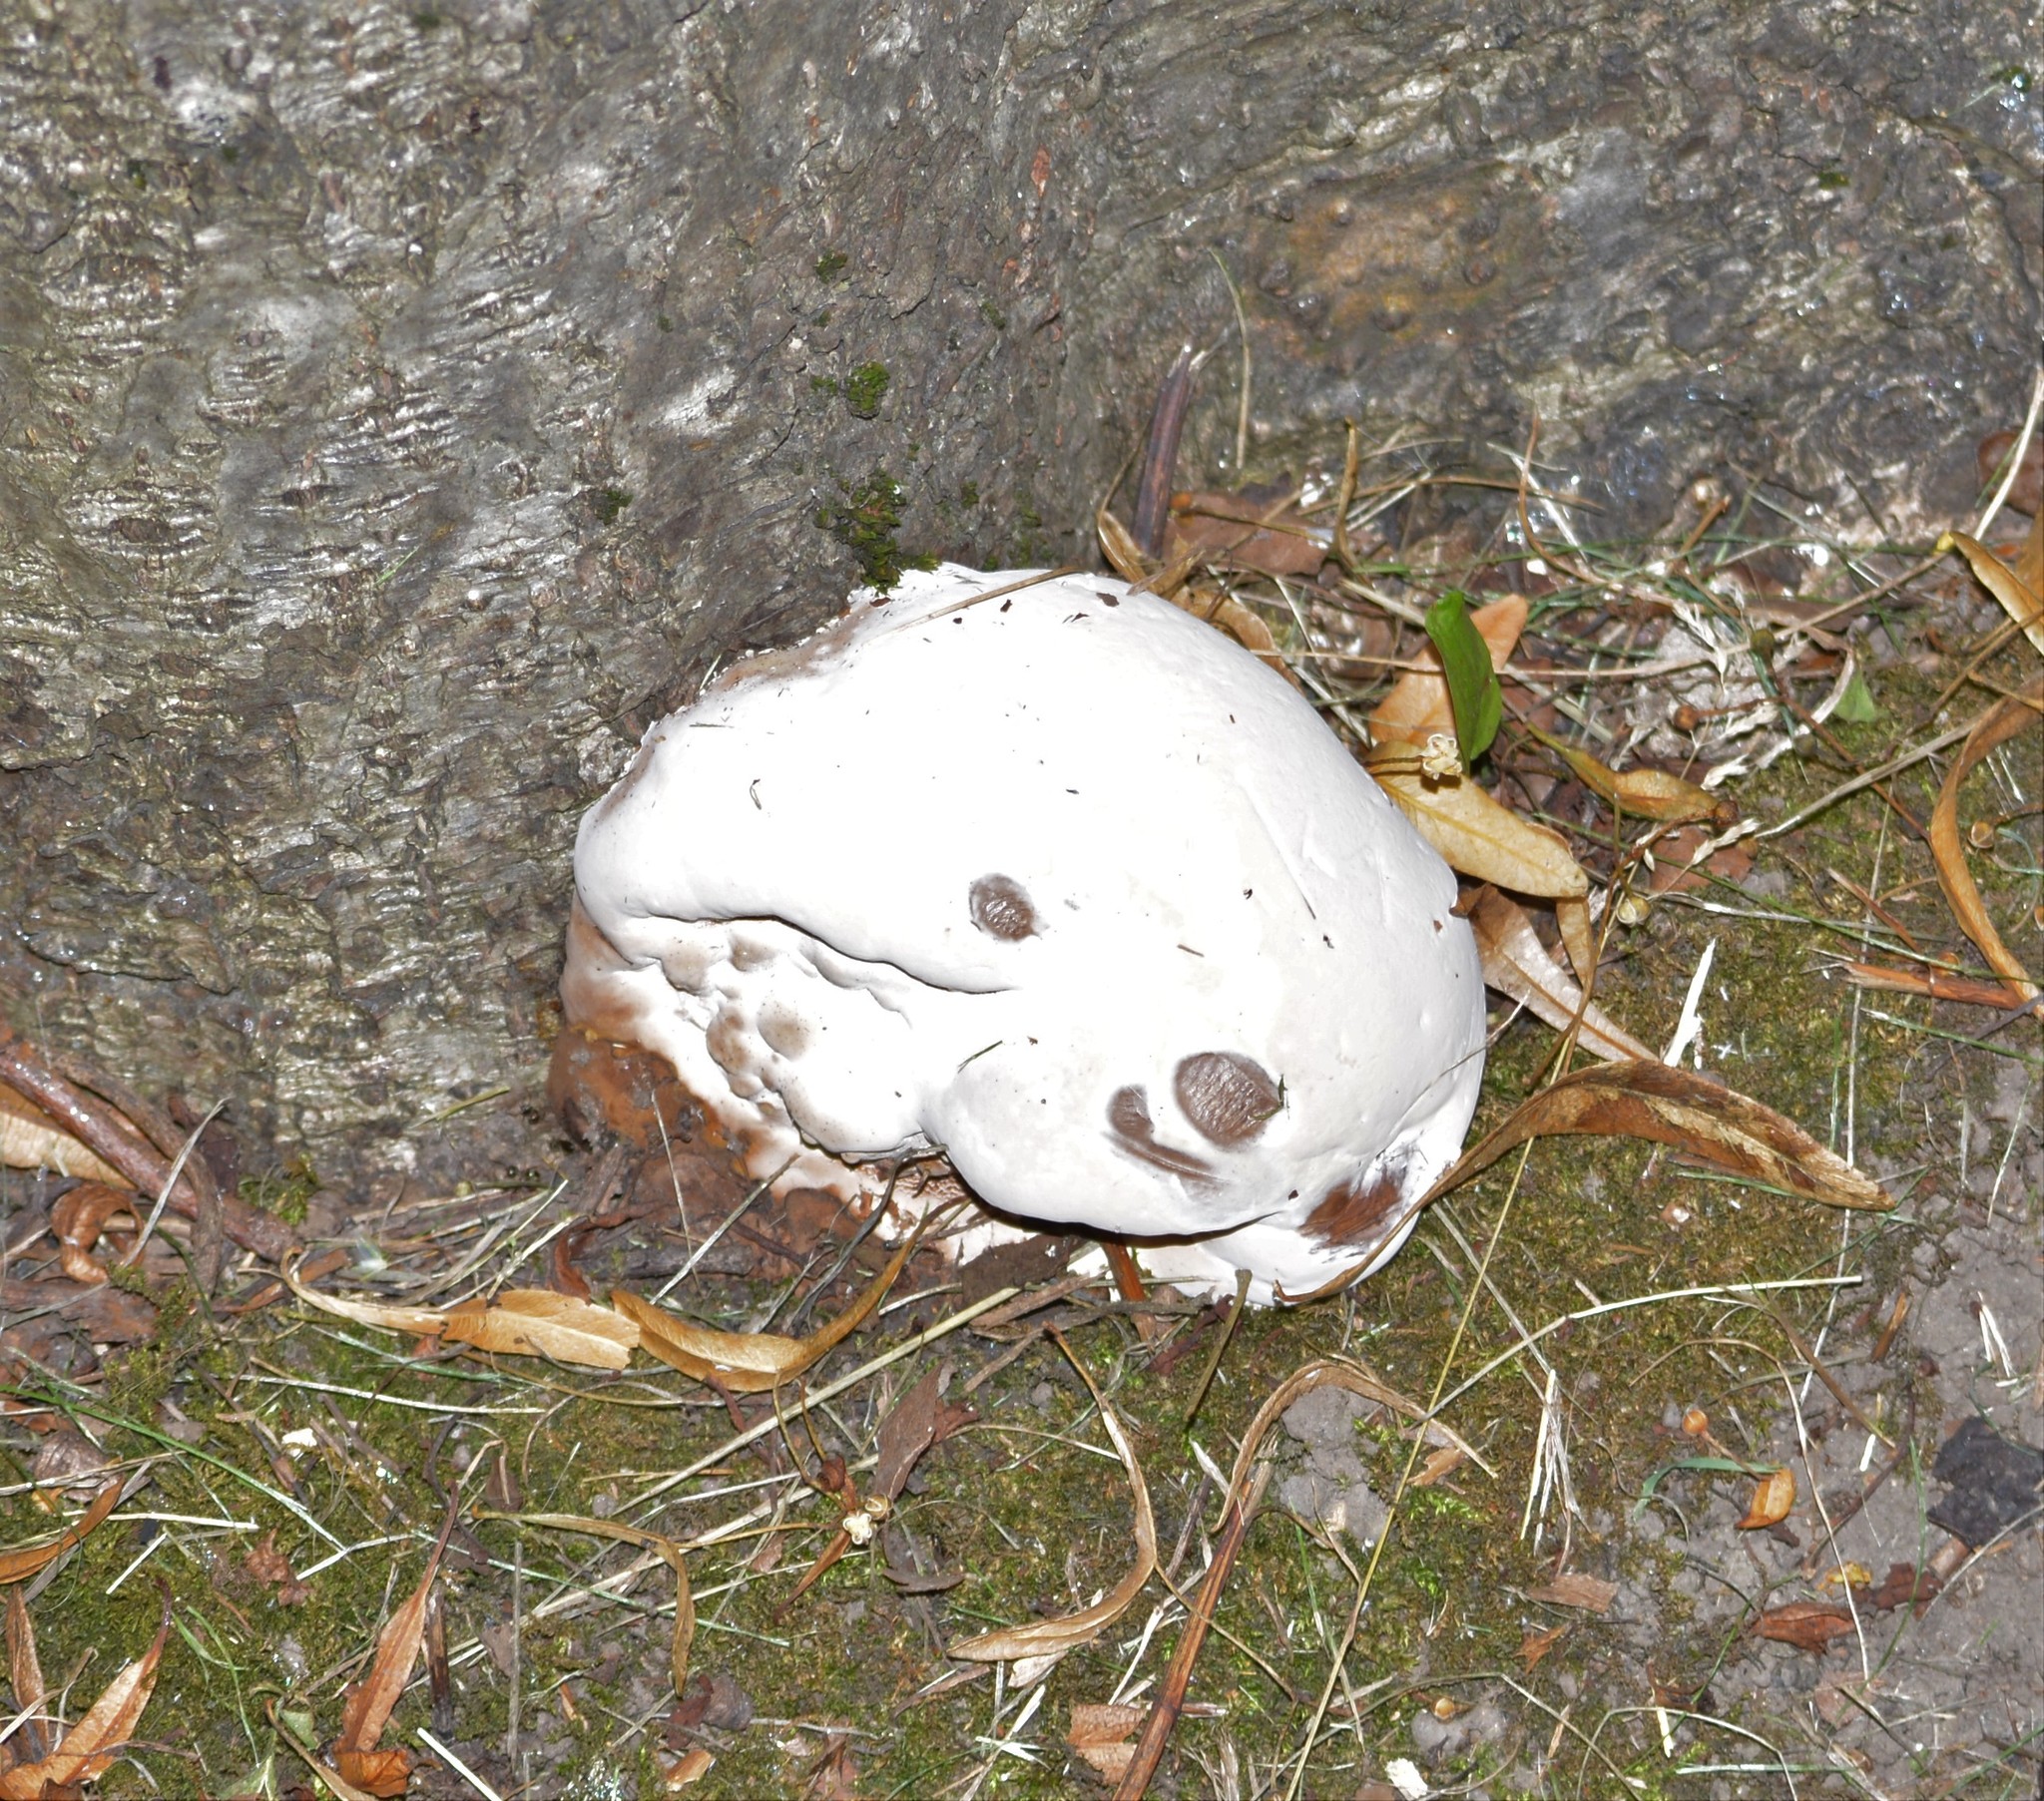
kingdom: Fungi
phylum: Basidiomycota
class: Agaricomycetes
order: Polyporales
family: Polyporaceae
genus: Ganoderma
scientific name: Ganoderma resinaceum
